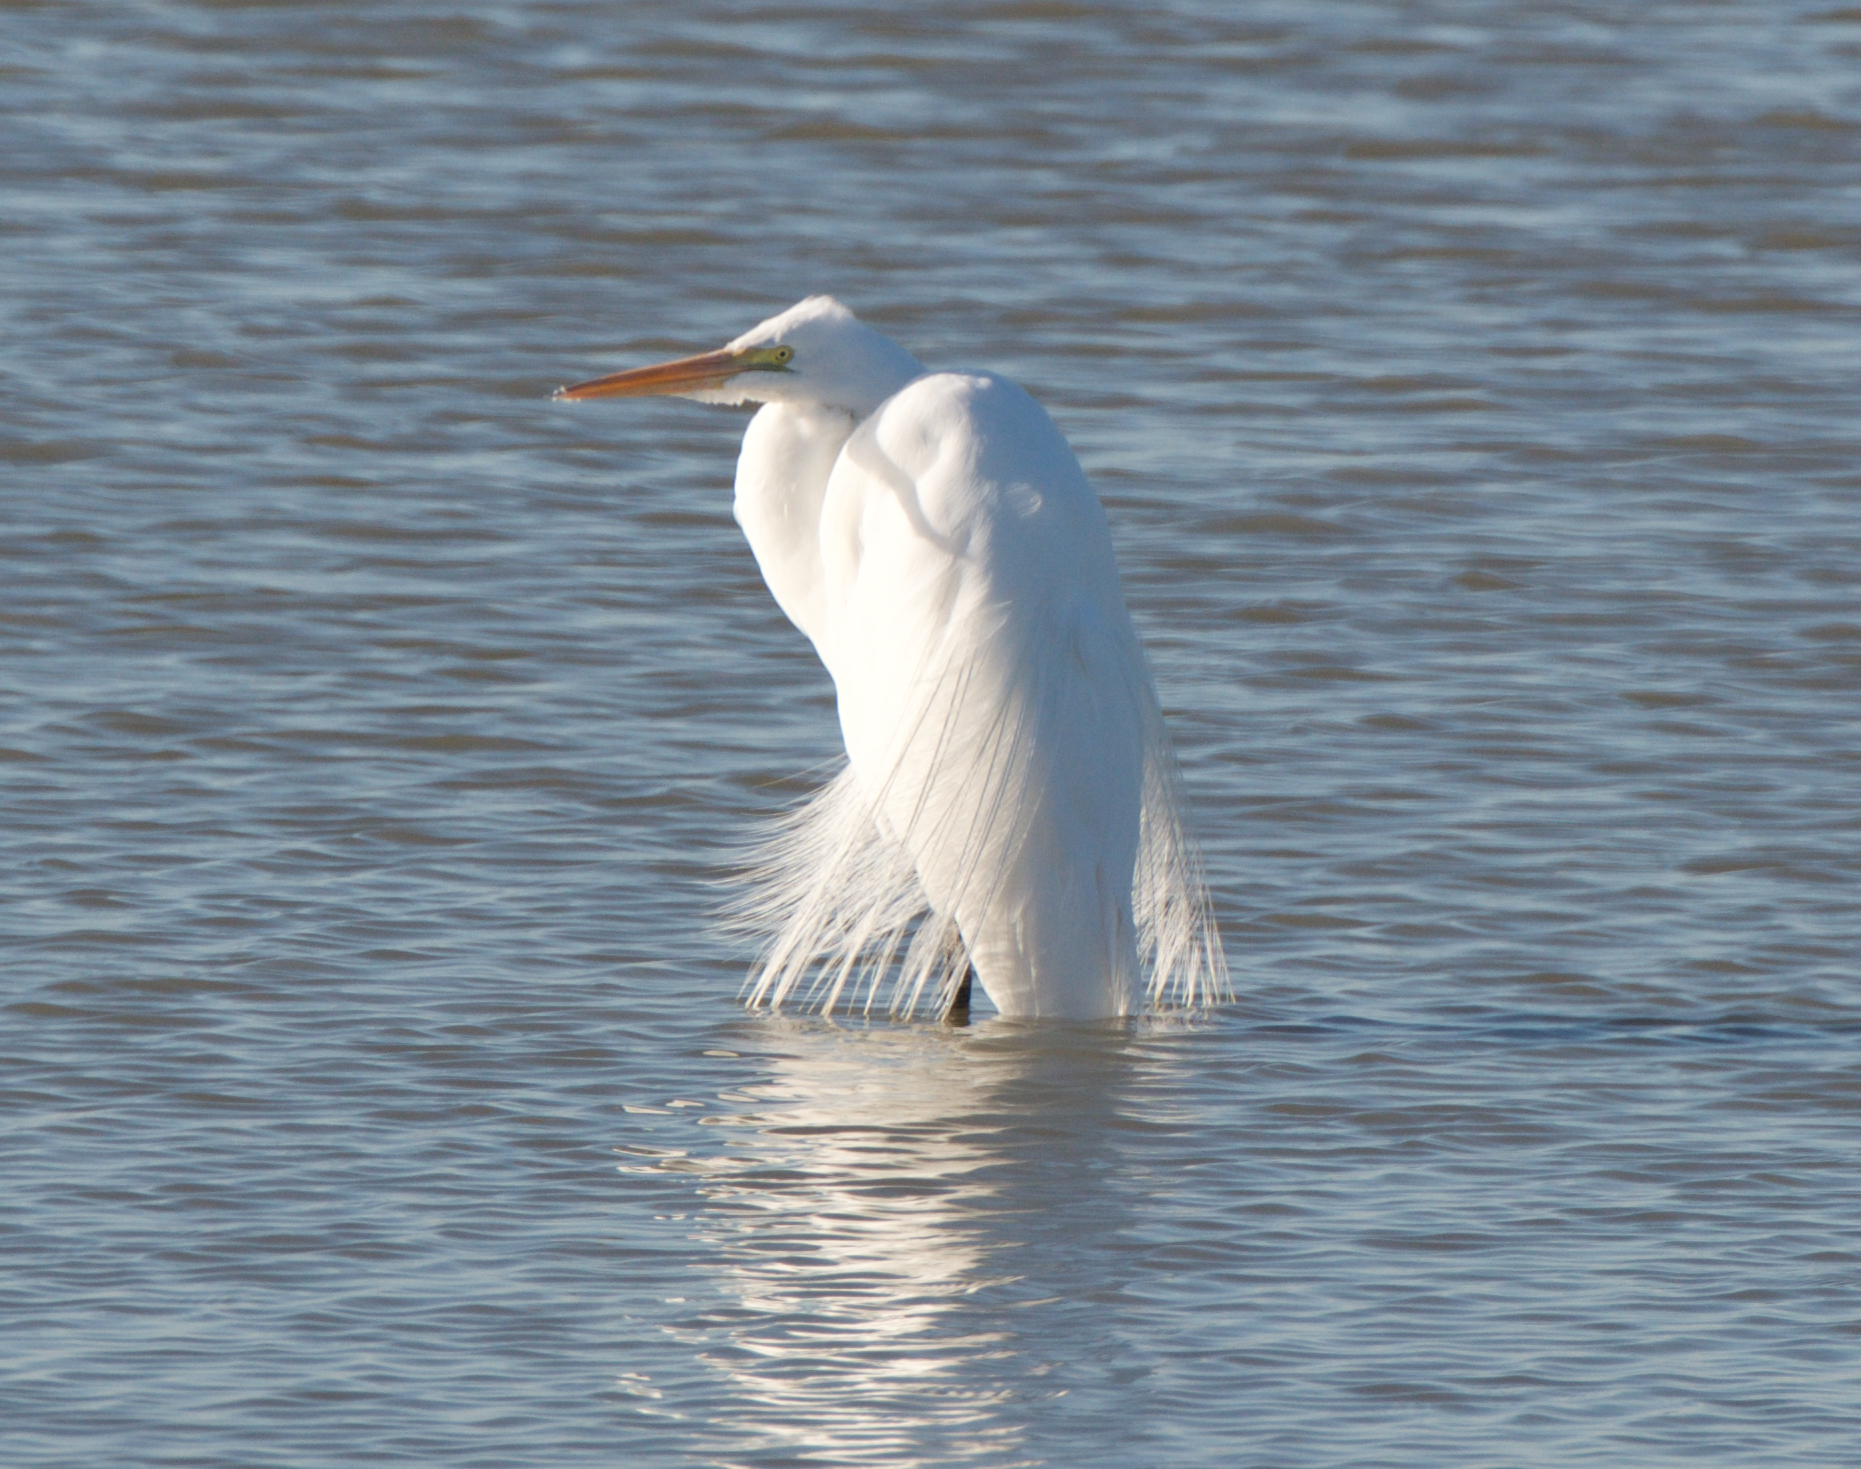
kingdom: Animalia
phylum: Chordata
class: Aves
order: Pelecaniformes
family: Ardeidae
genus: Ardea
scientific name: Ardea alba
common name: Great egret
